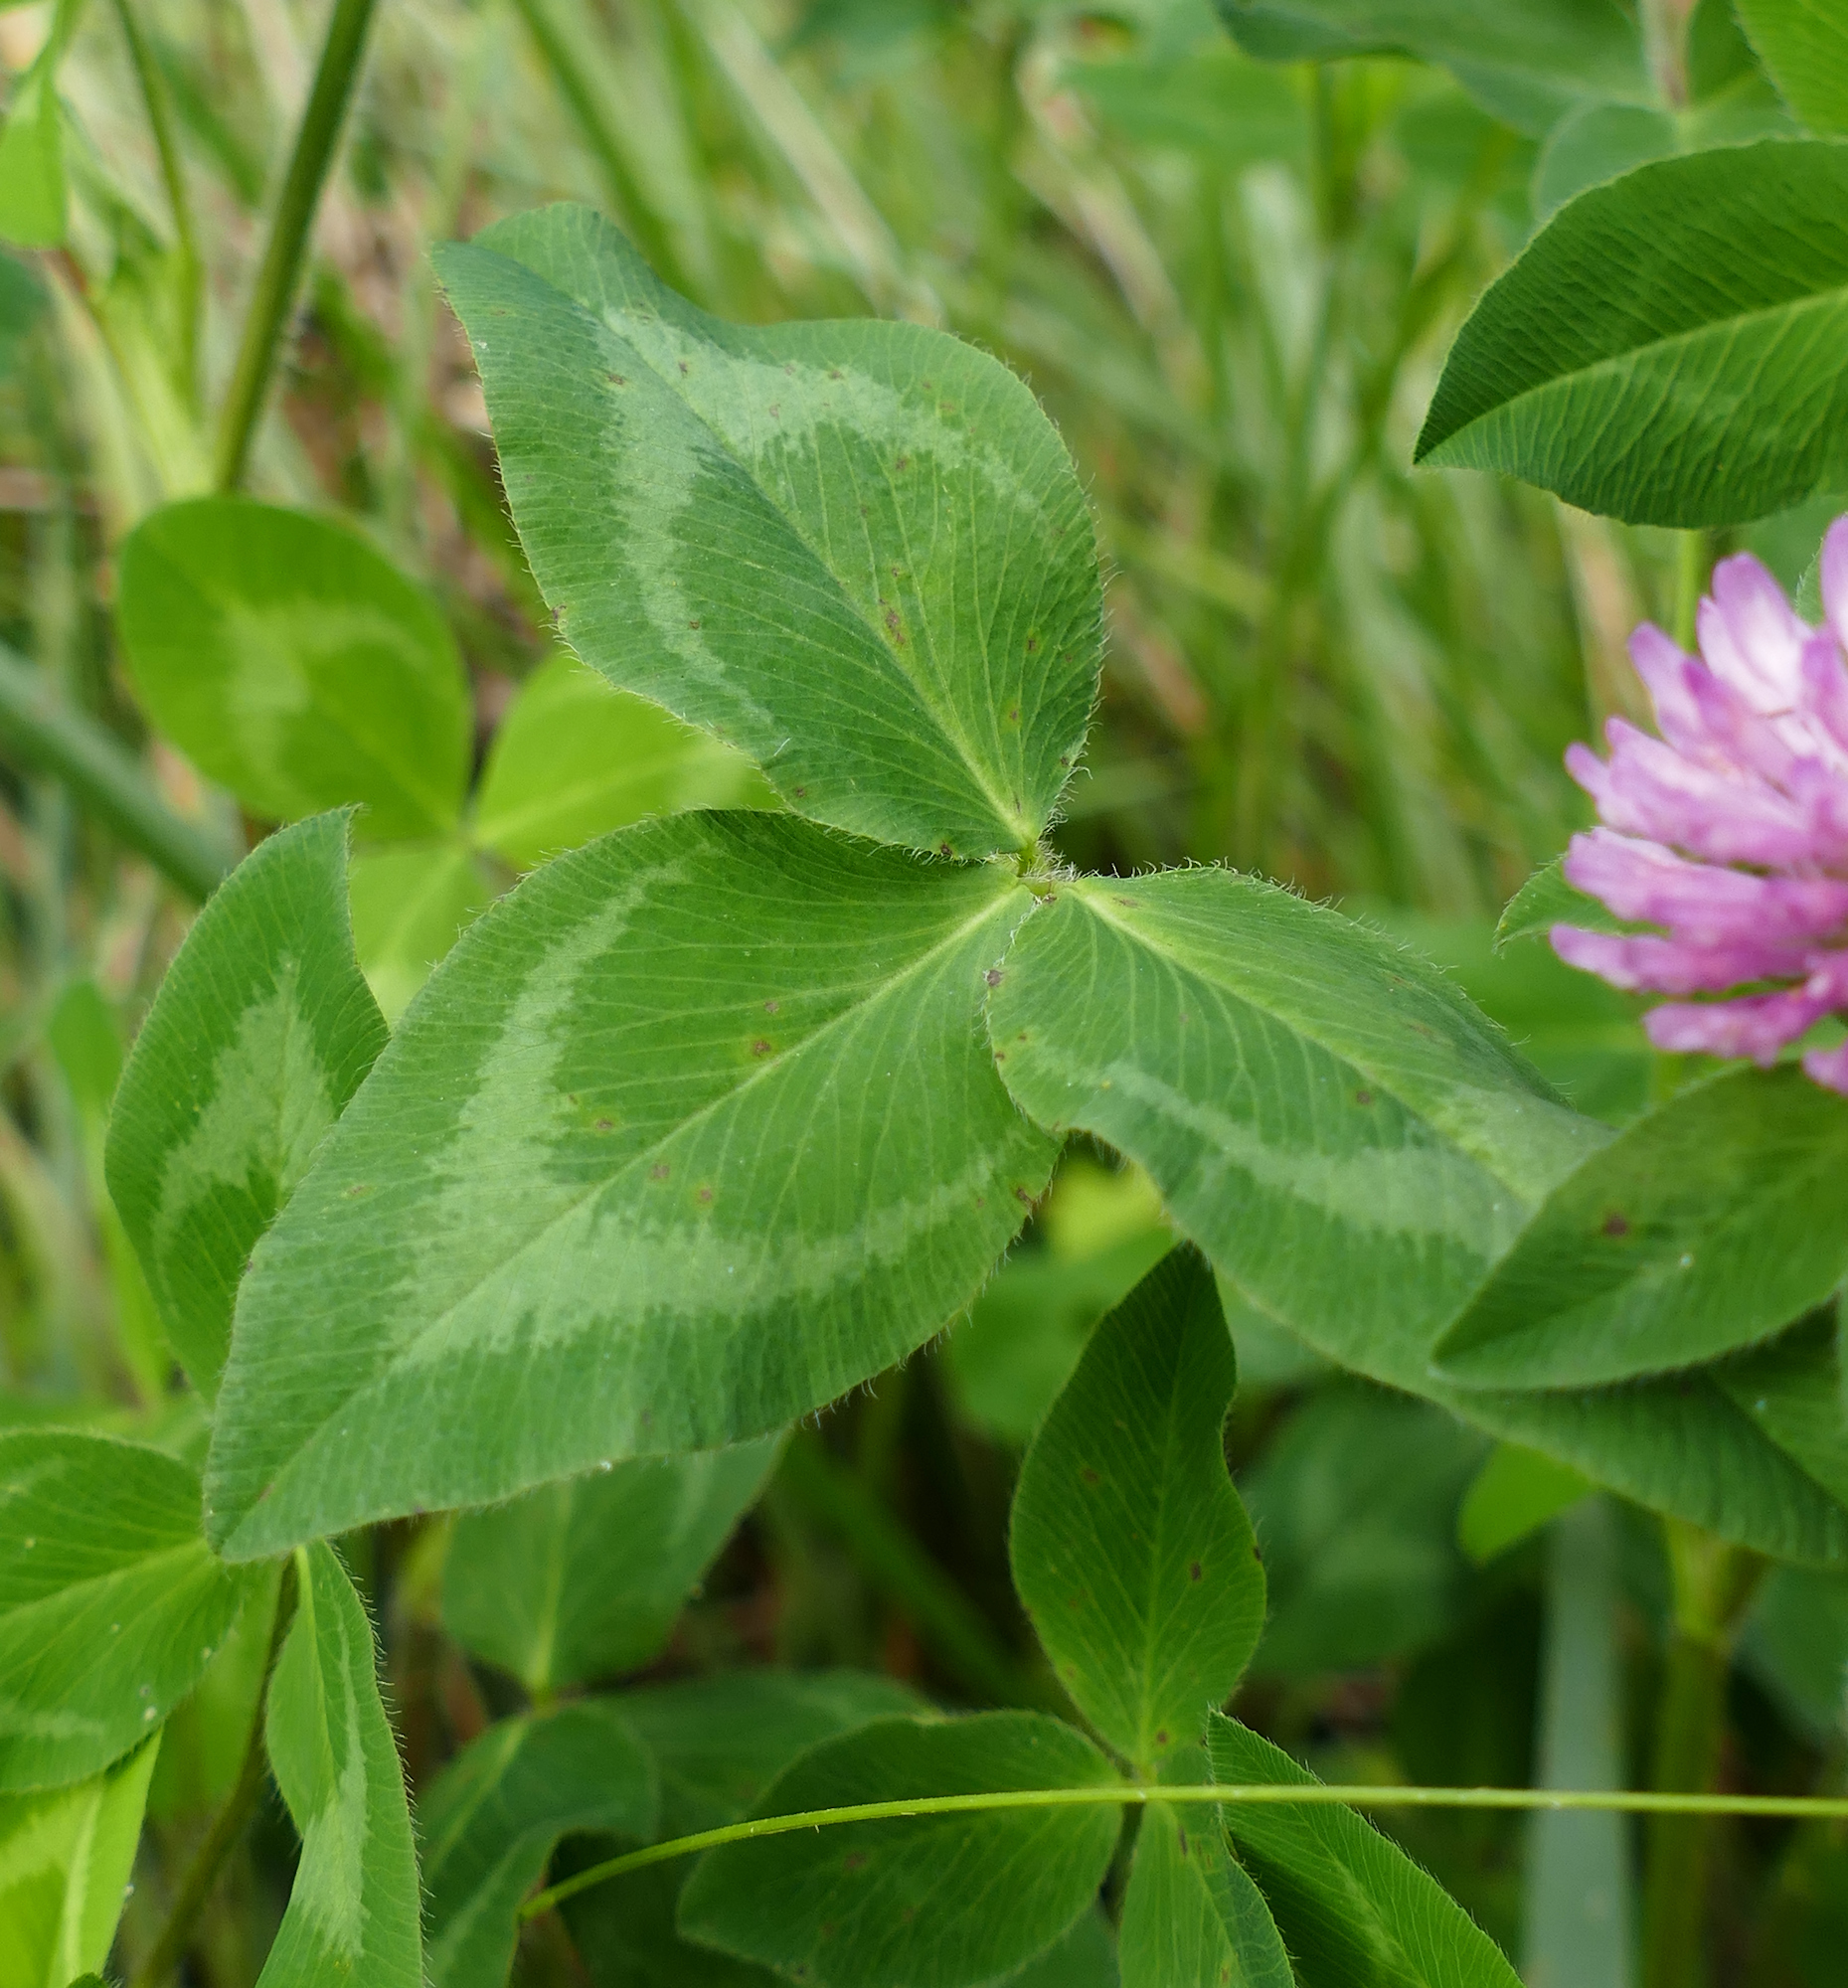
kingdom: Plantae
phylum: Tracheophyta
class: Magnoliopsida
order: Fabales
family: Fabaceae
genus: Trifolium
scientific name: Trifolium pratense
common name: Red clover
